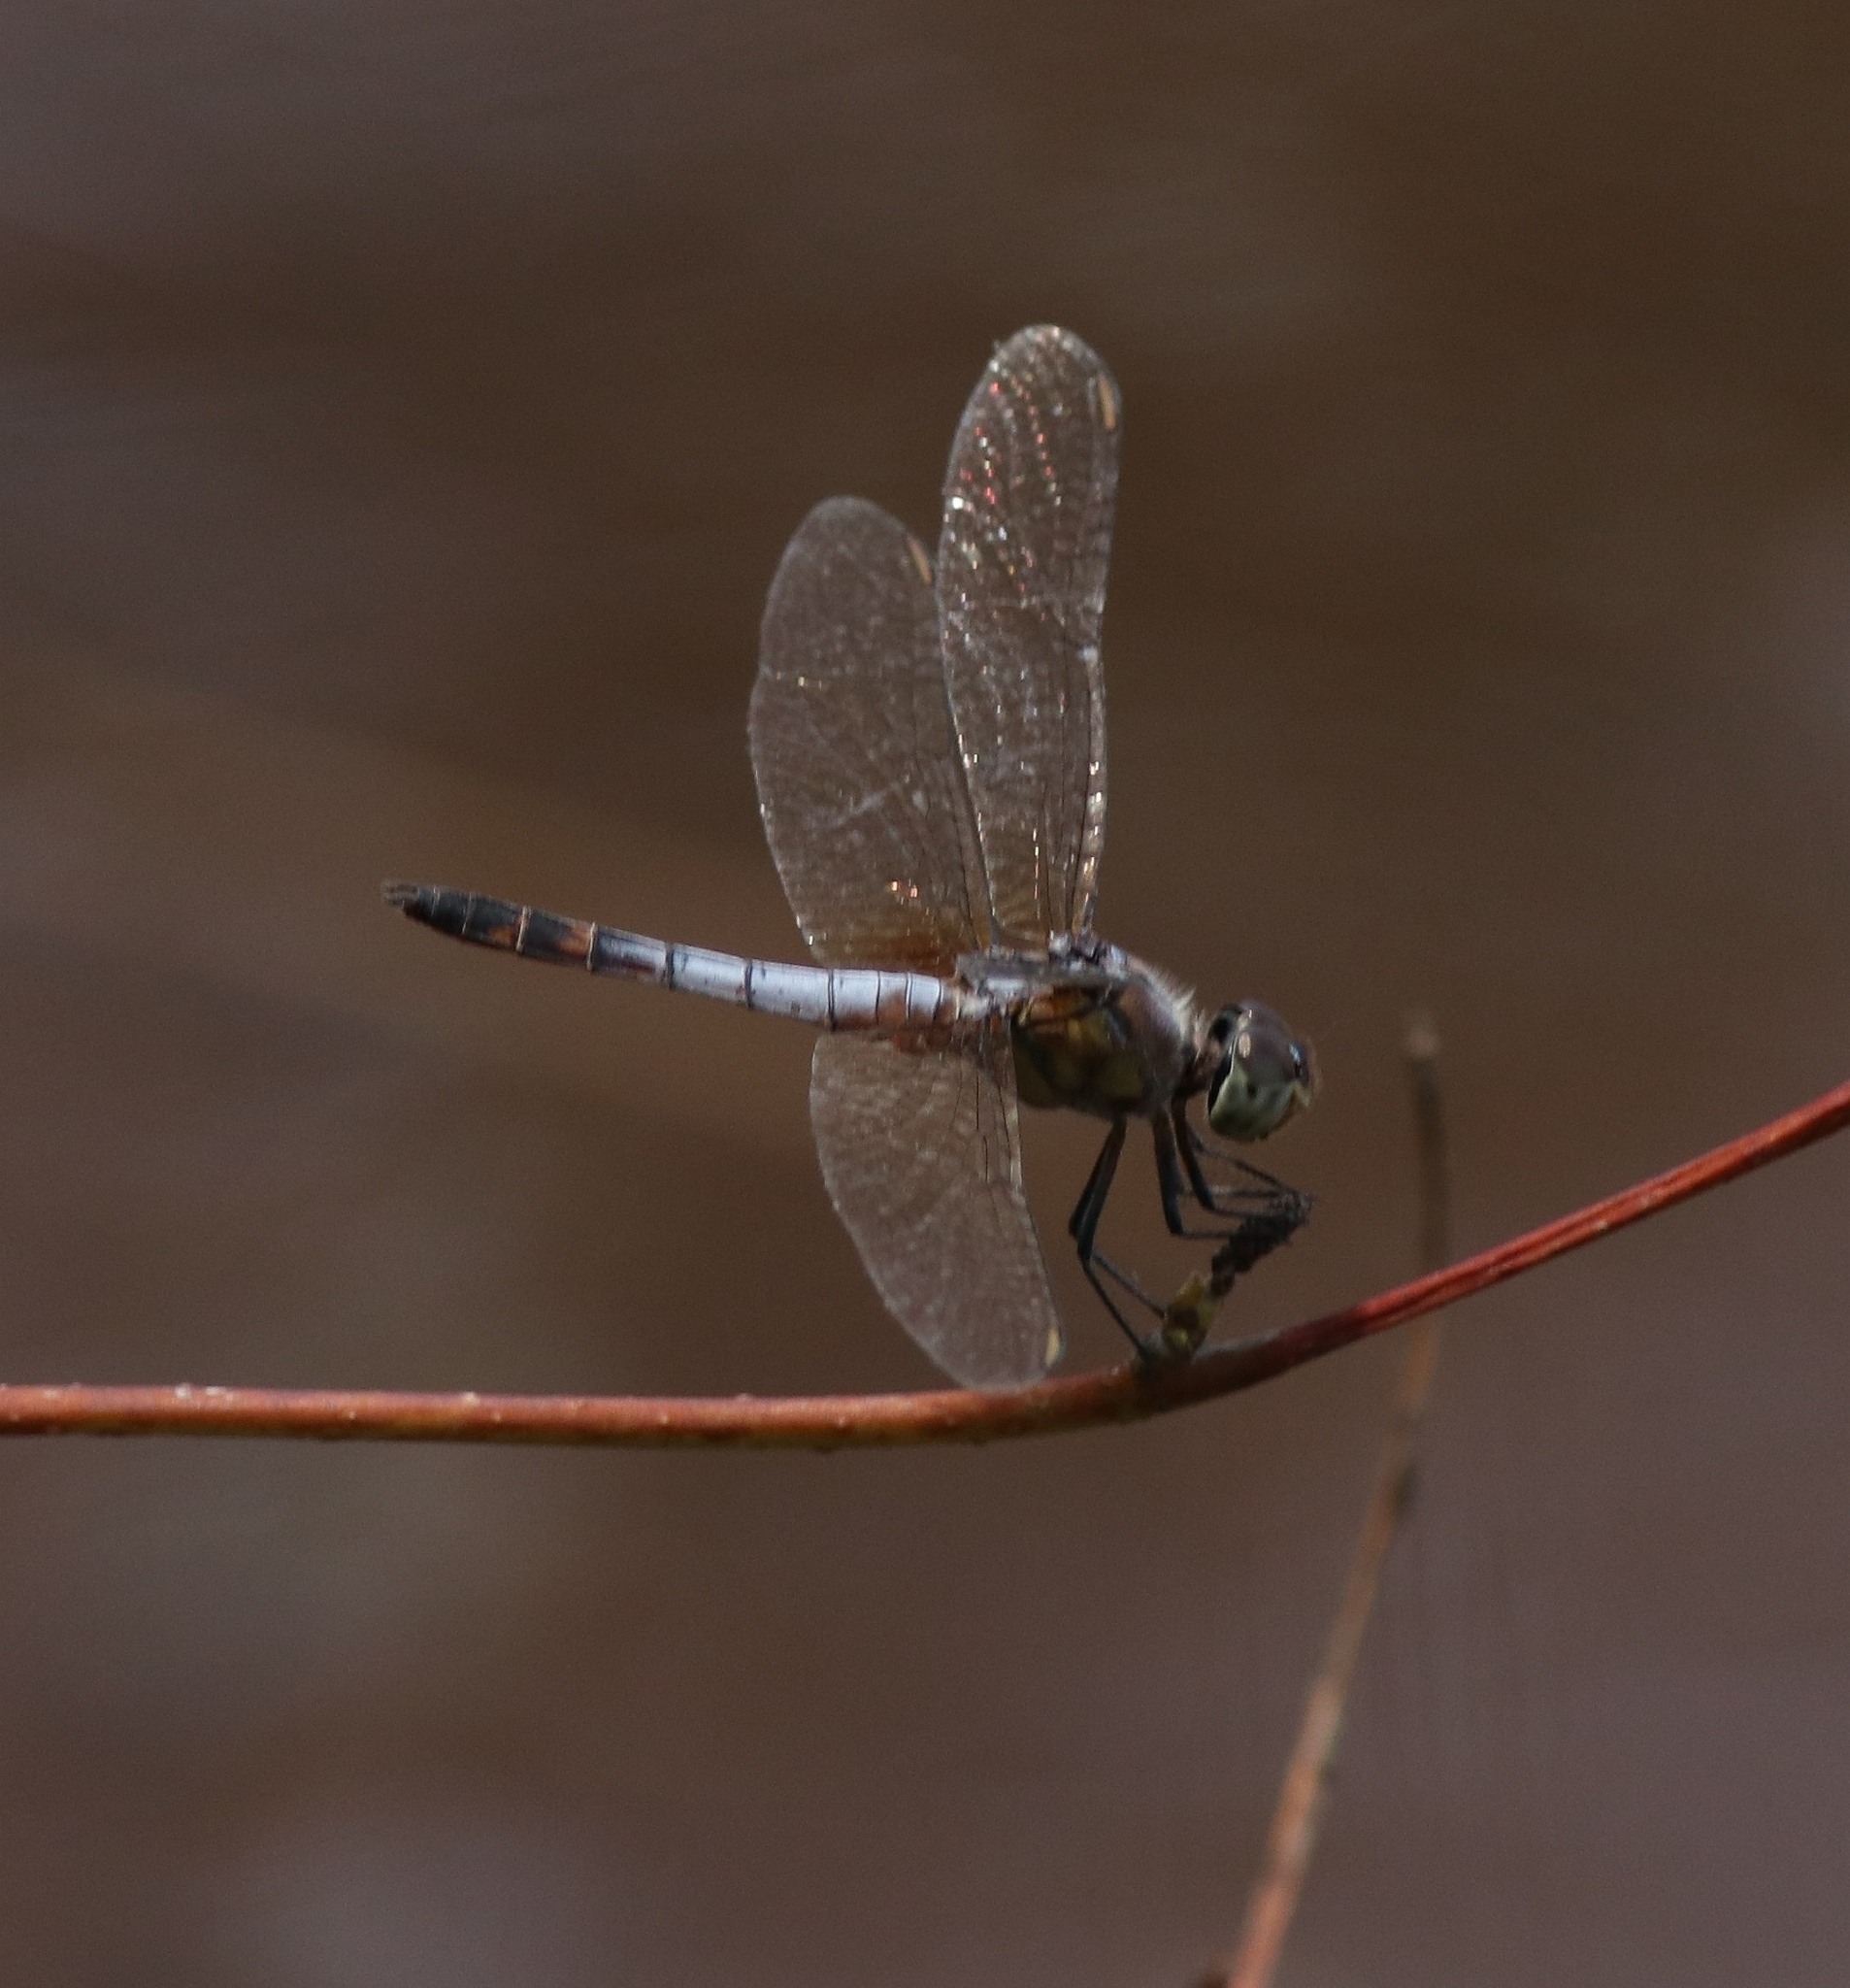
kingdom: Animalia
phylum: Arthropoda
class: Insecta
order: Odonata
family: Libellulidae
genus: Brachydiplax
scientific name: Brachydiplax chalybea
